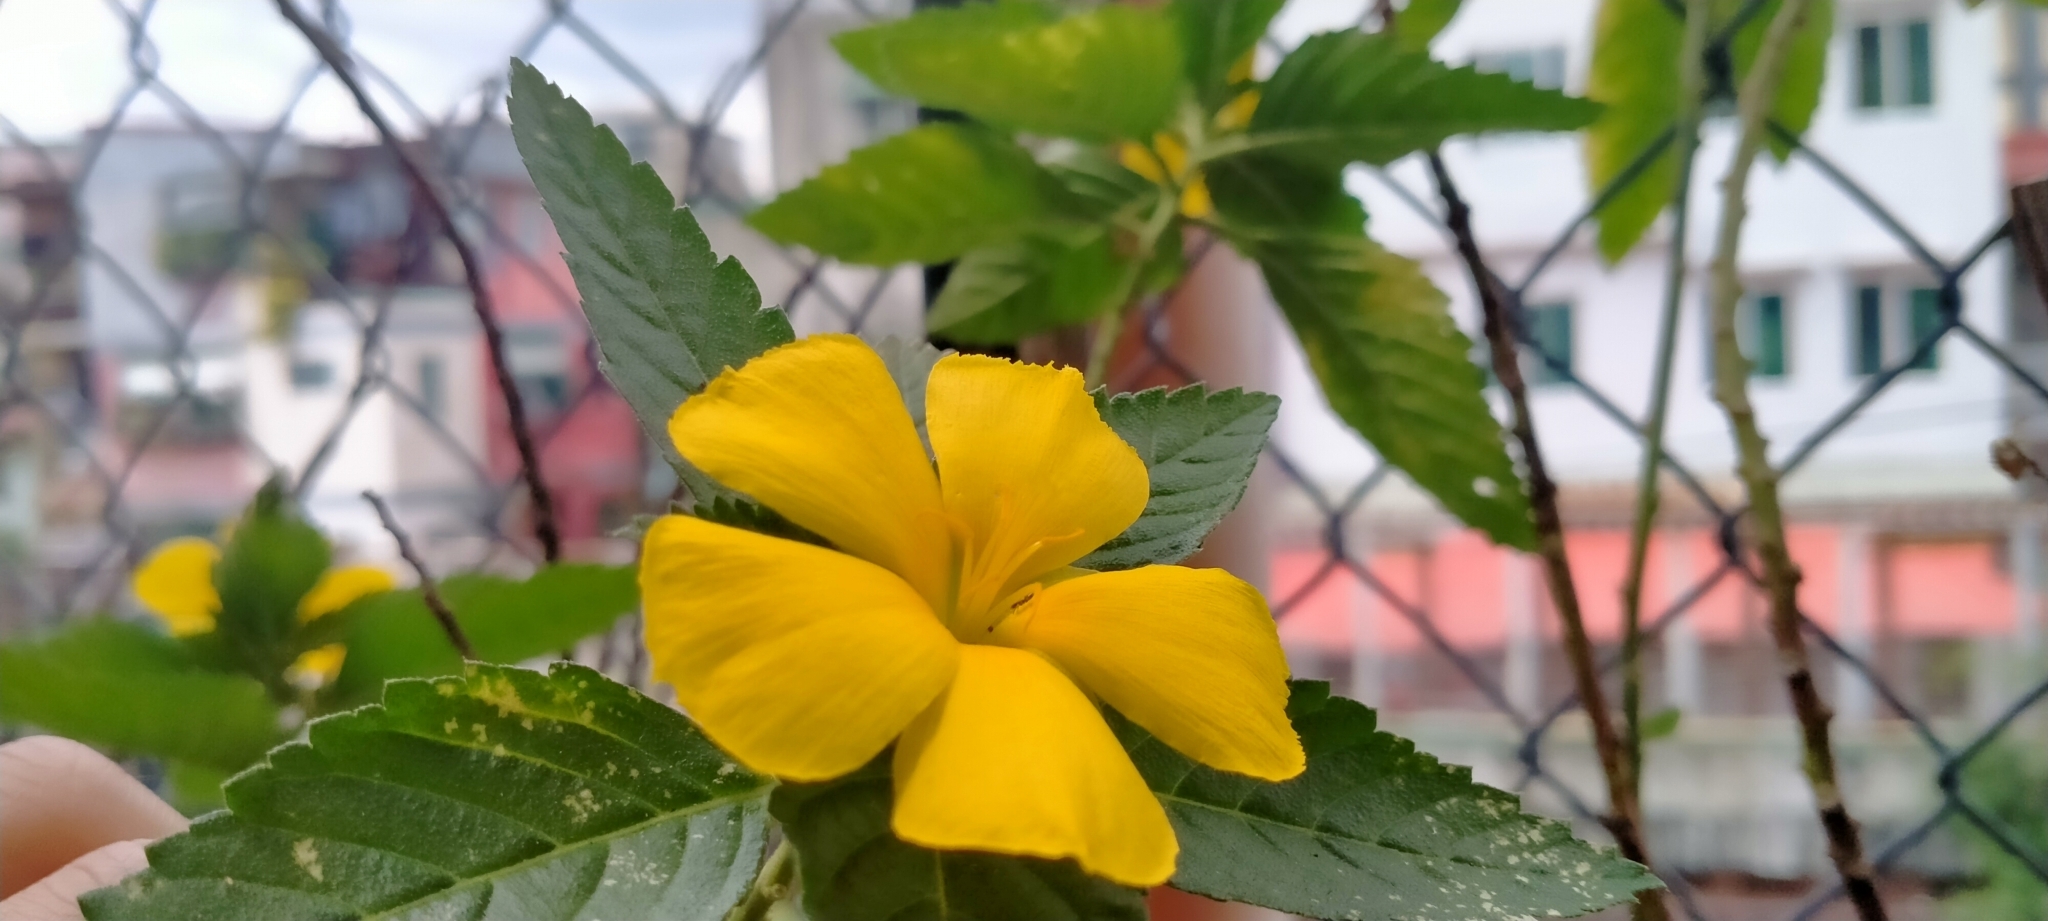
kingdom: Animalia
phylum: Arthropoda
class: Insecta
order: Hymenoptera
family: Formicidae
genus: Tapinoma
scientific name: Tapinoma melanocephalum
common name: Ghost ant
